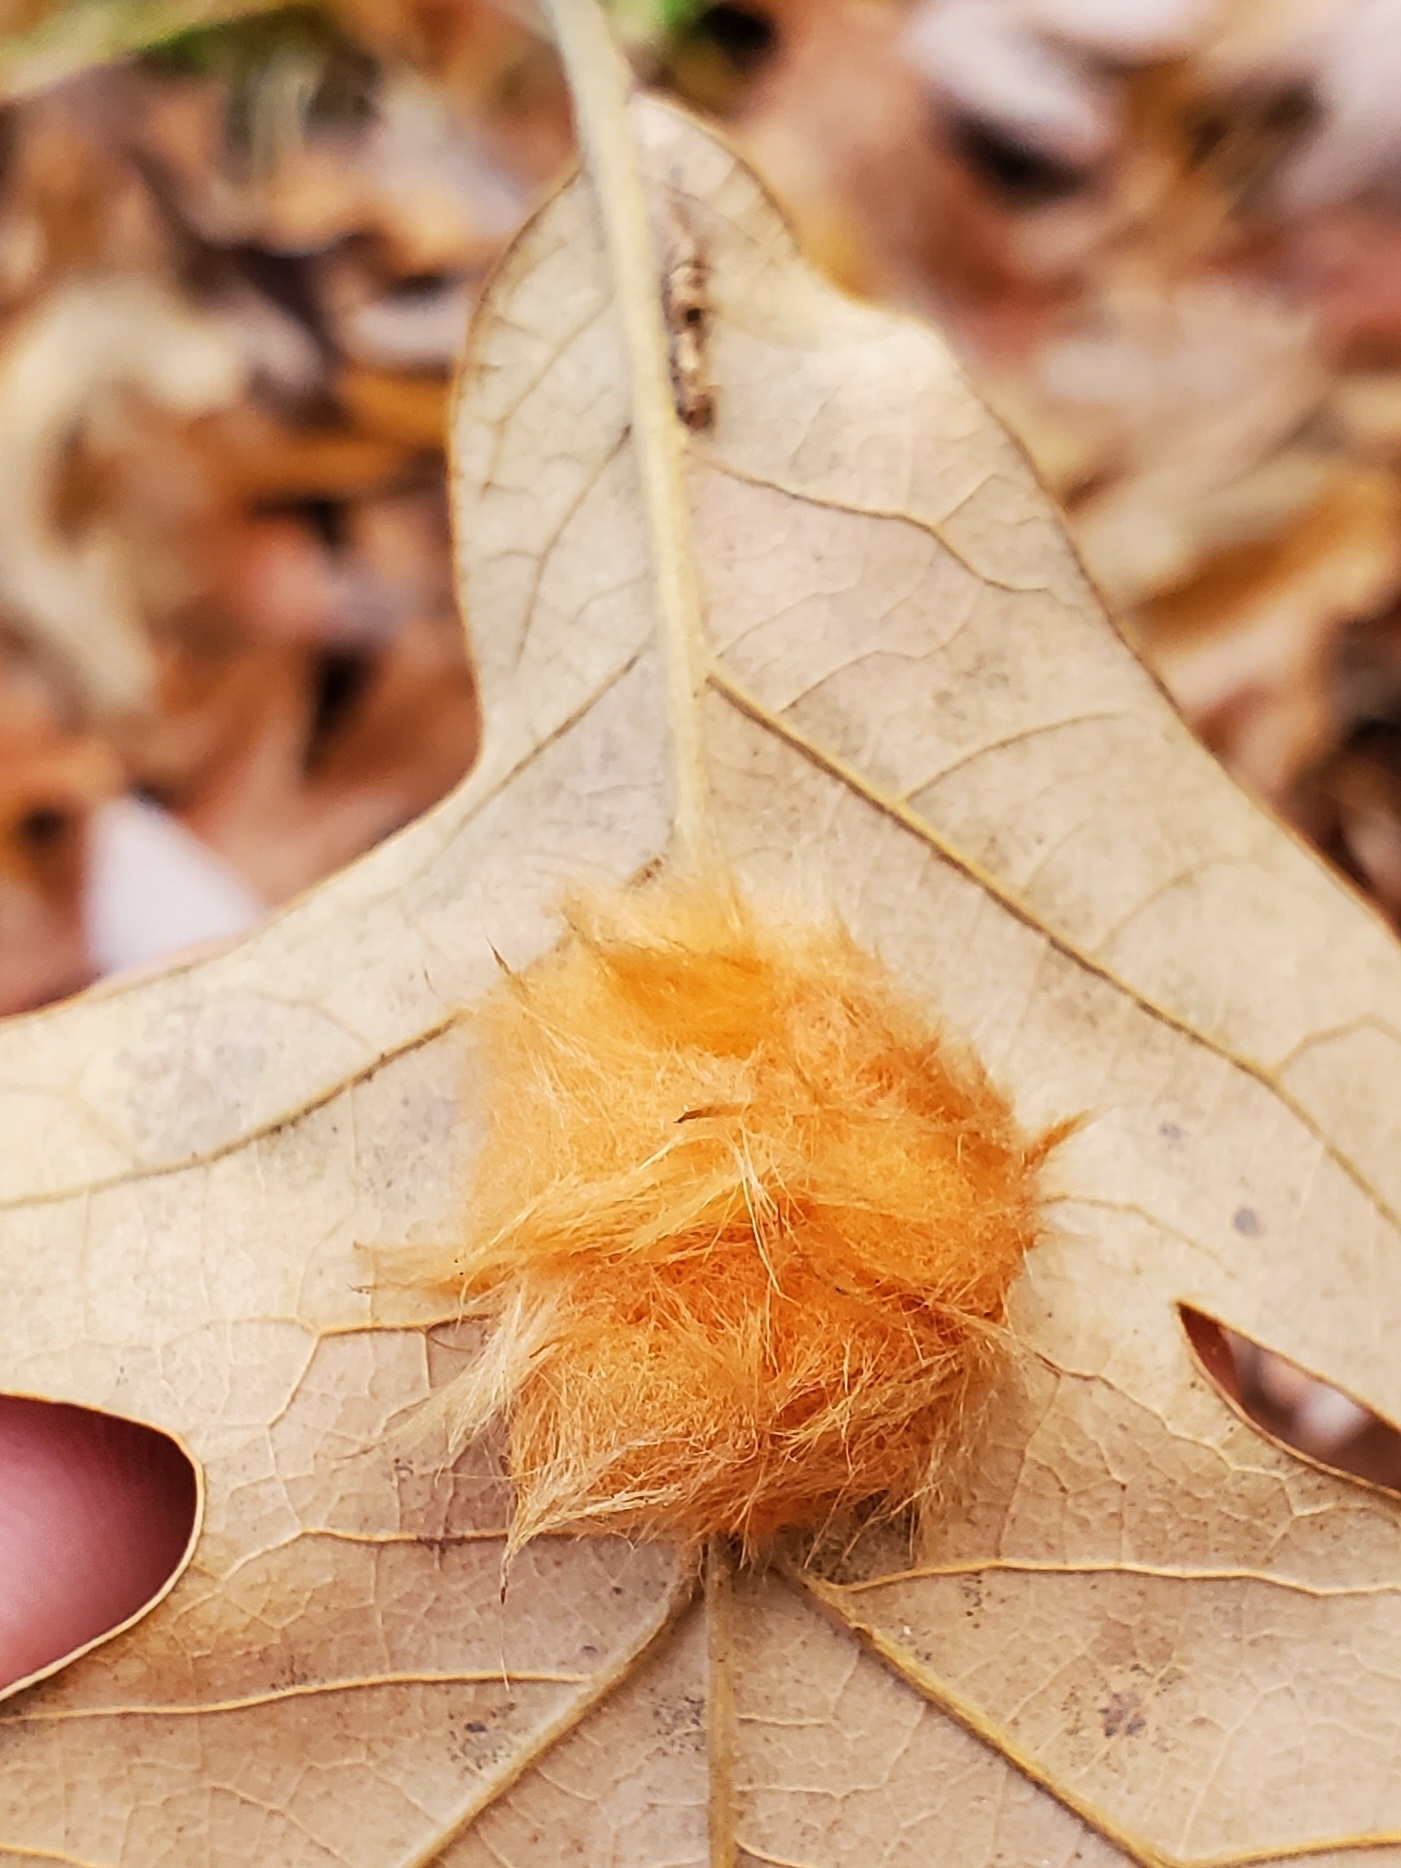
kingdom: Animalia
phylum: Arthropoda
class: Insecta
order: Hymenoptera
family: Cynipidae
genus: Andricus
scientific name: Andricus Druon pattoni
